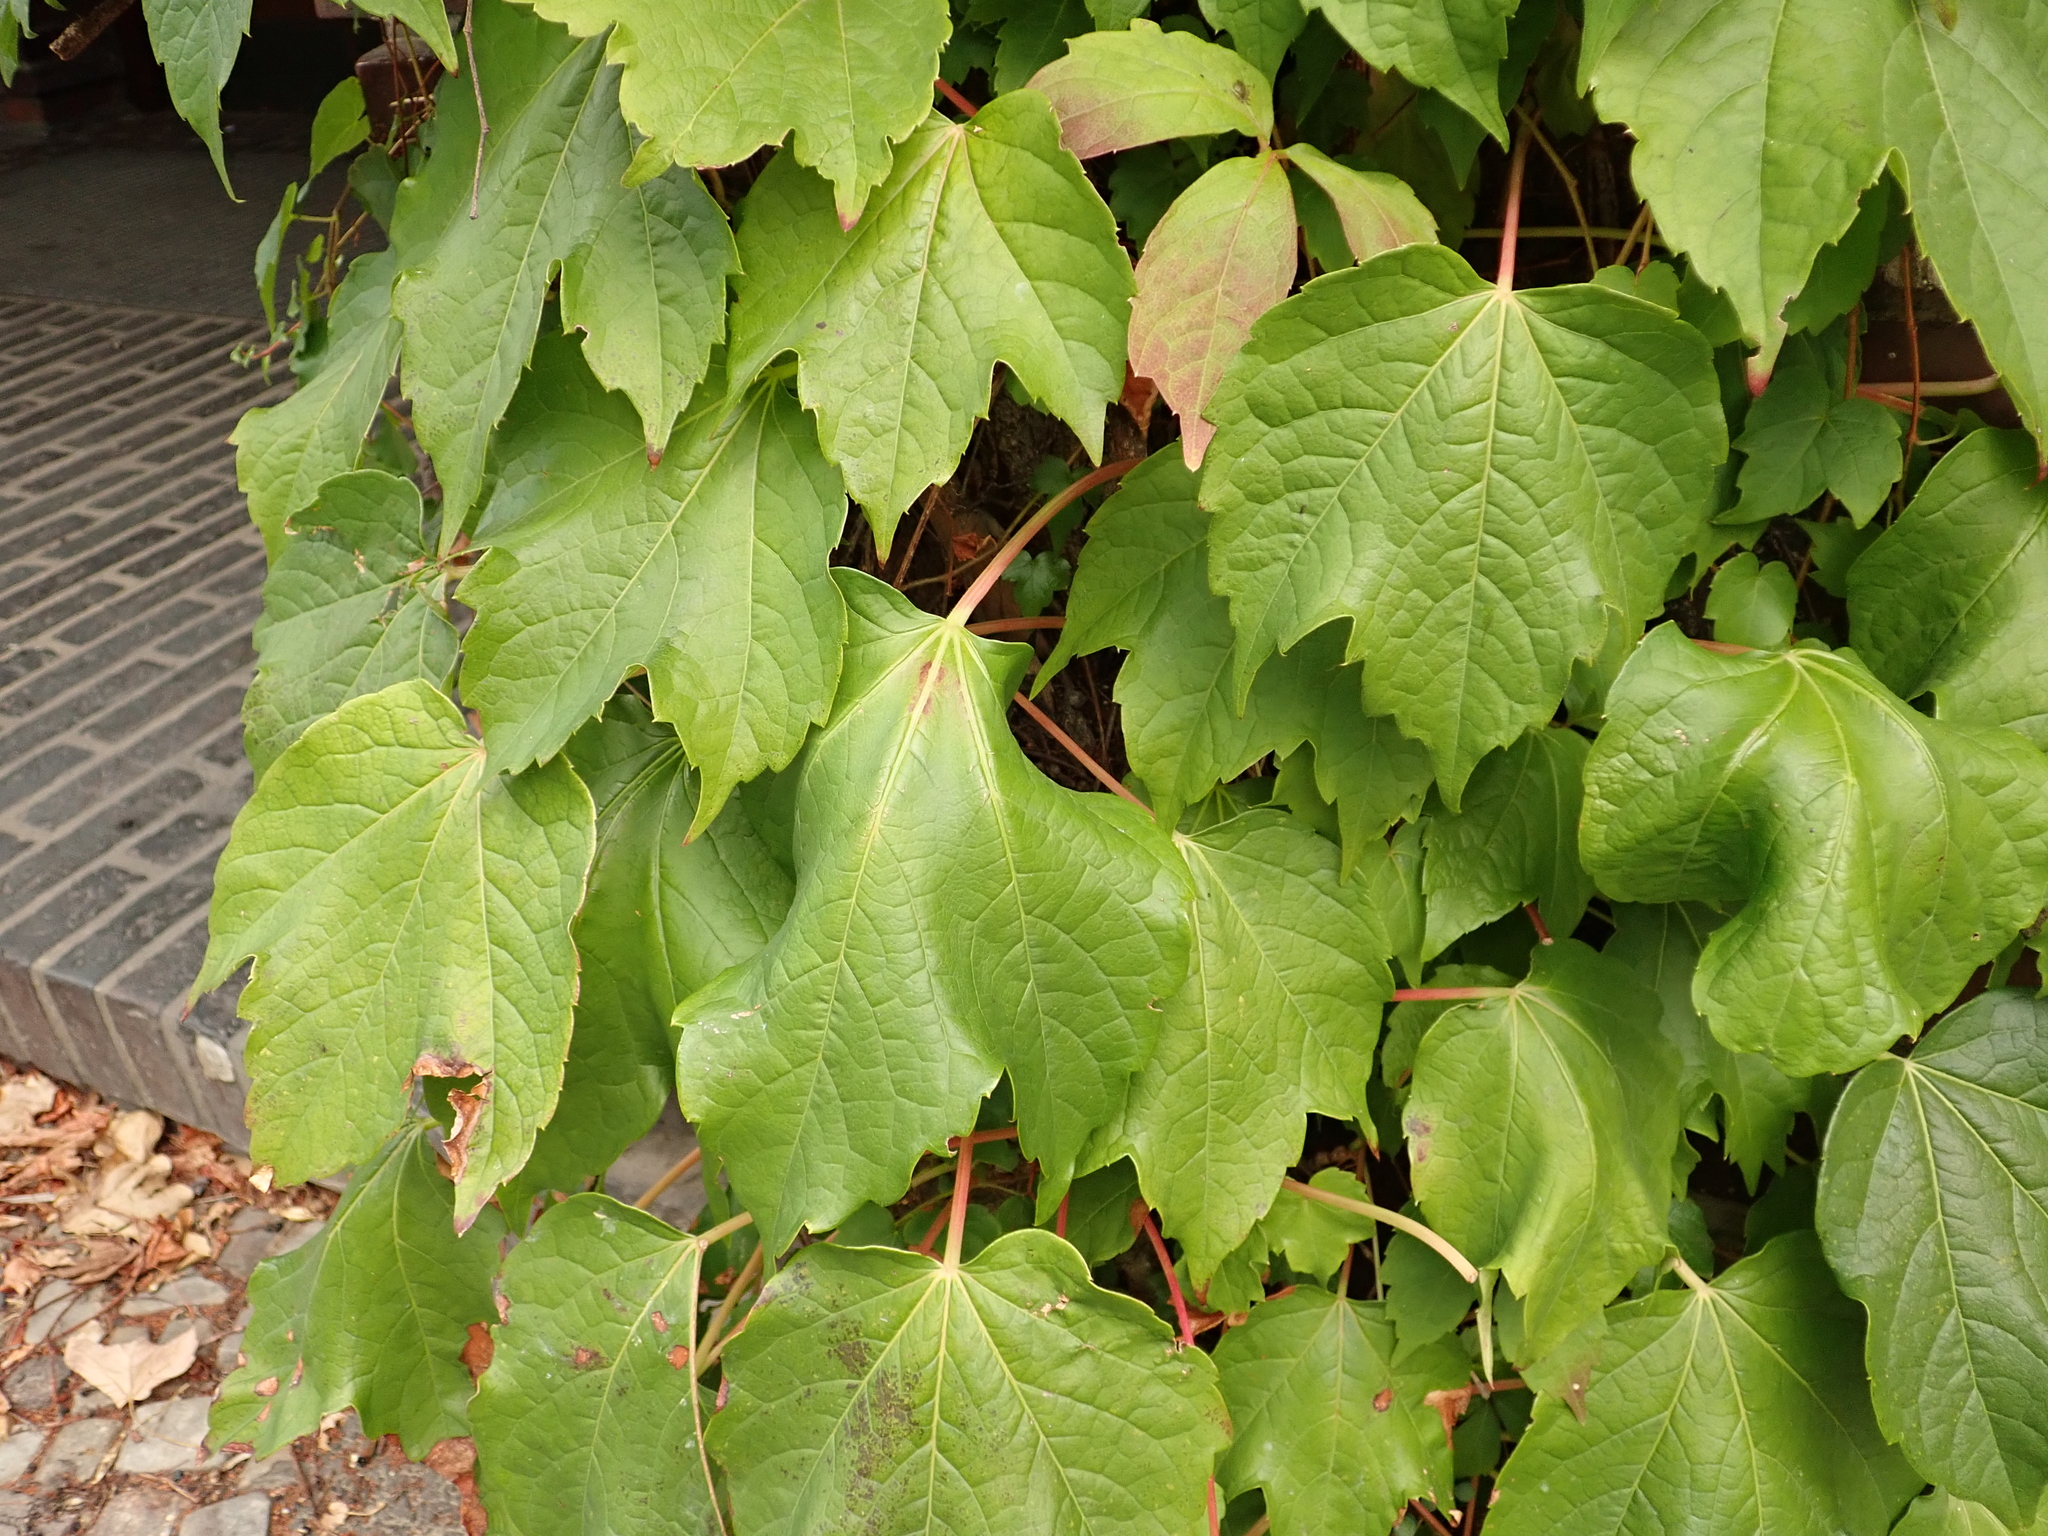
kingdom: Plantae
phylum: Tracheophyta
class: Magnoliopsida
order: Vitales
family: Vitaceae
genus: Parthenocissus
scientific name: Parthenocissus tricuspidata
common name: Boston ivy
